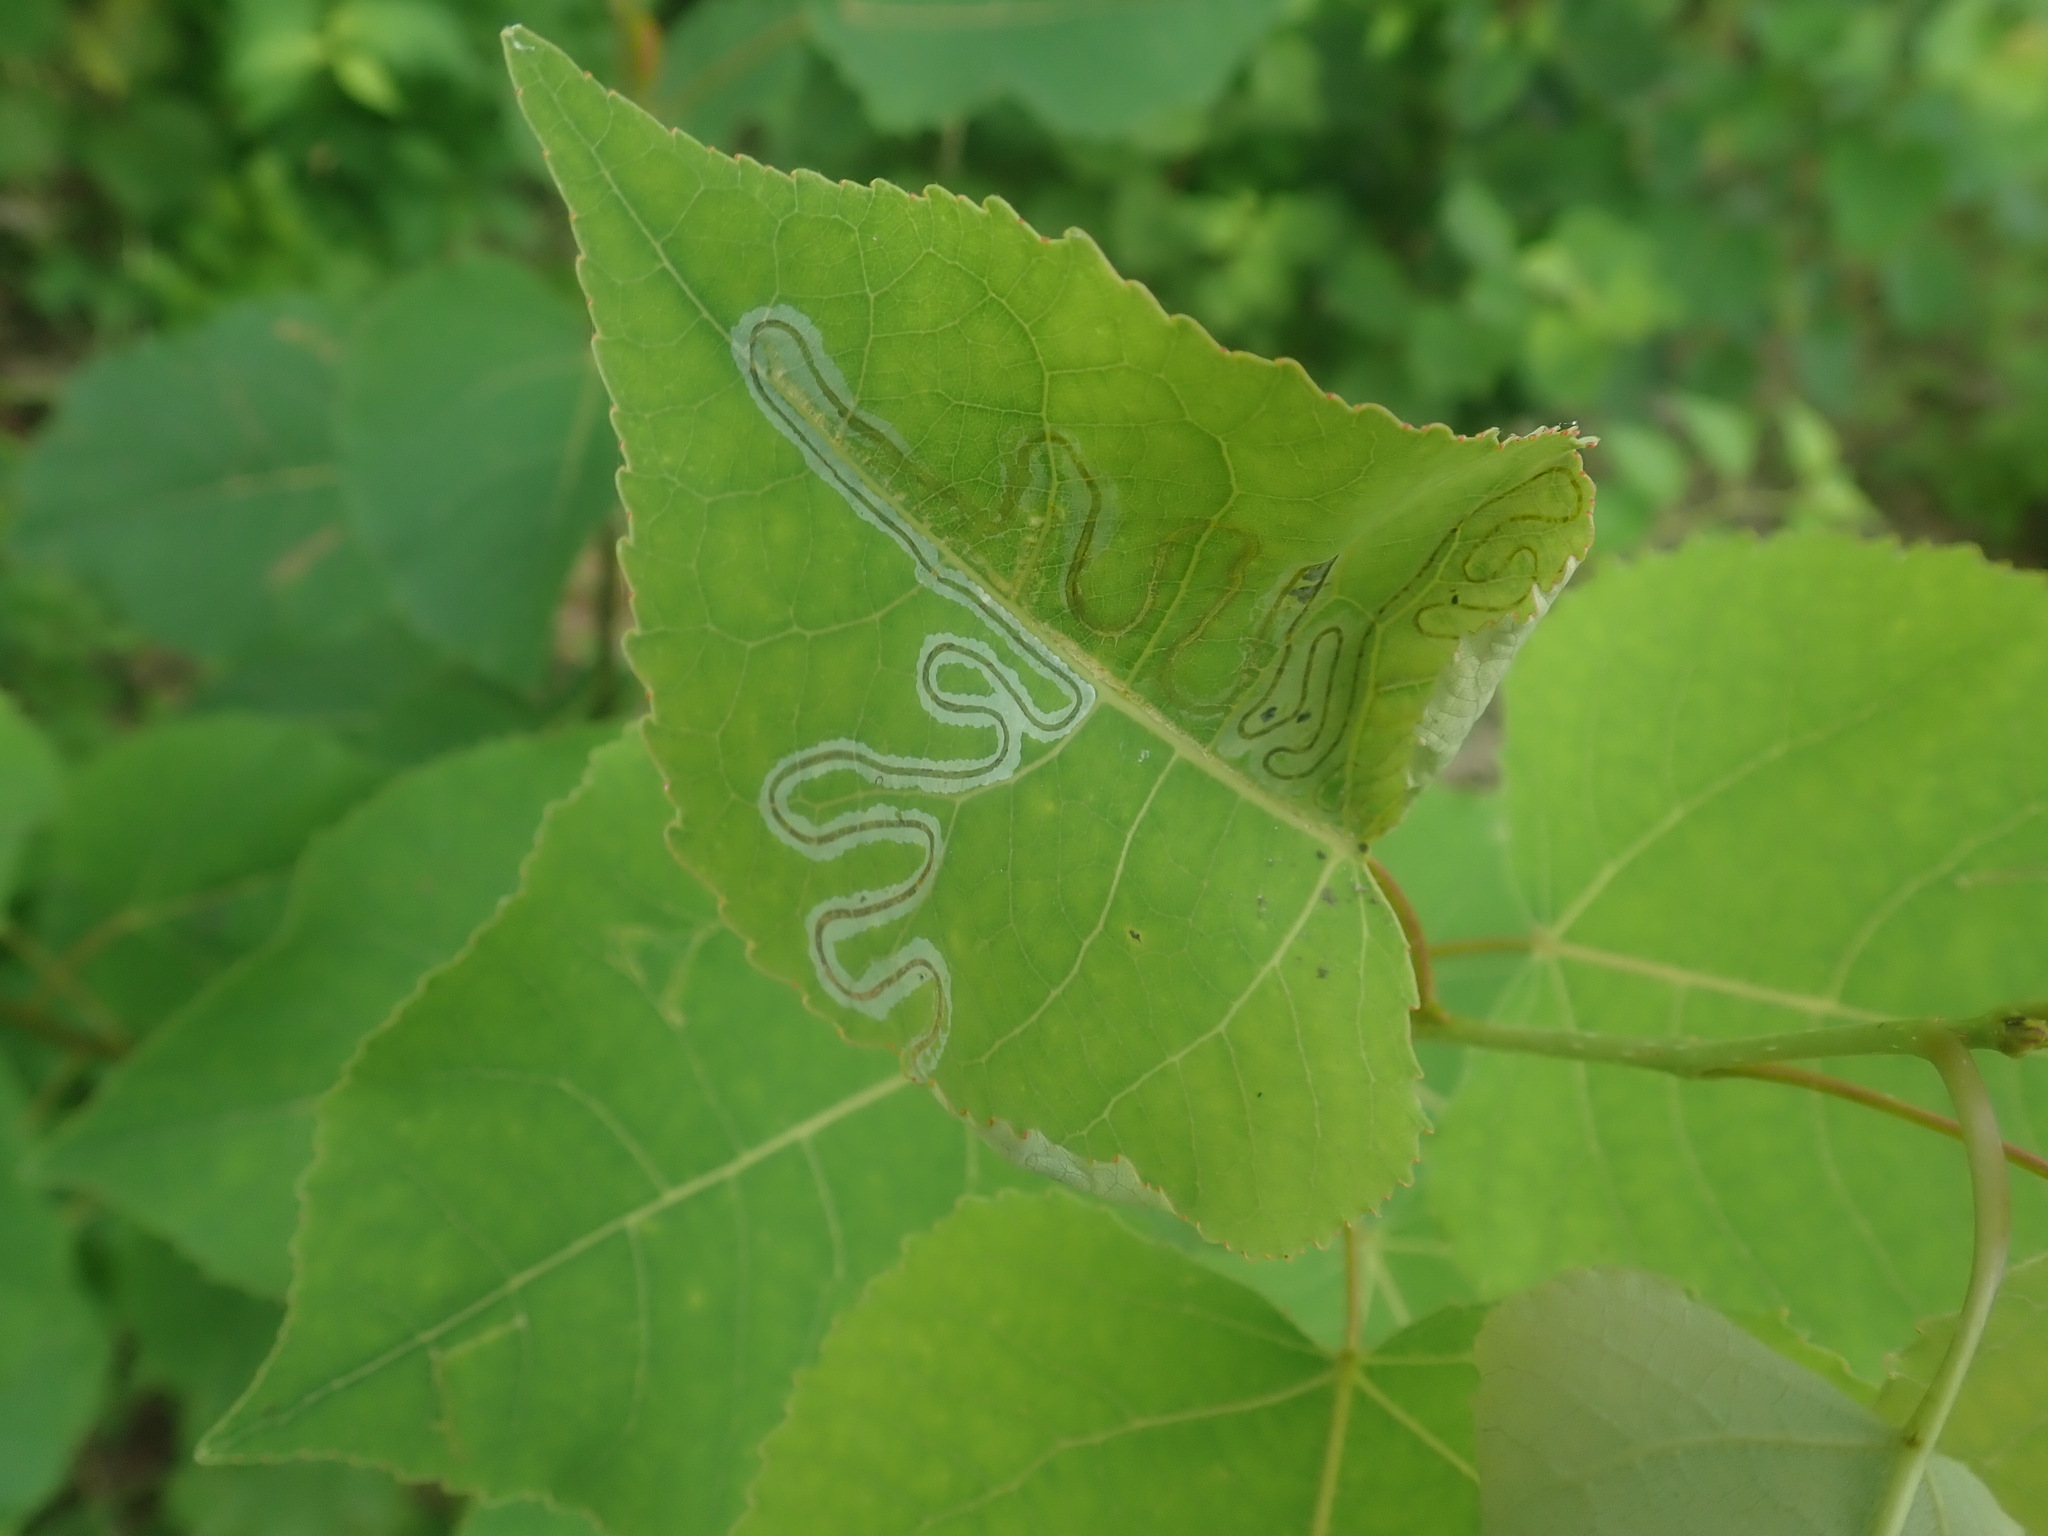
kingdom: Animalia
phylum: Arthropoda
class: Insecta
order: Lepidoptera
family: Gracillariidae
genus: Phyllocnistis
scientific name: Phyllocnistis populiella
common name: Aspen serpentine leafminer moth
